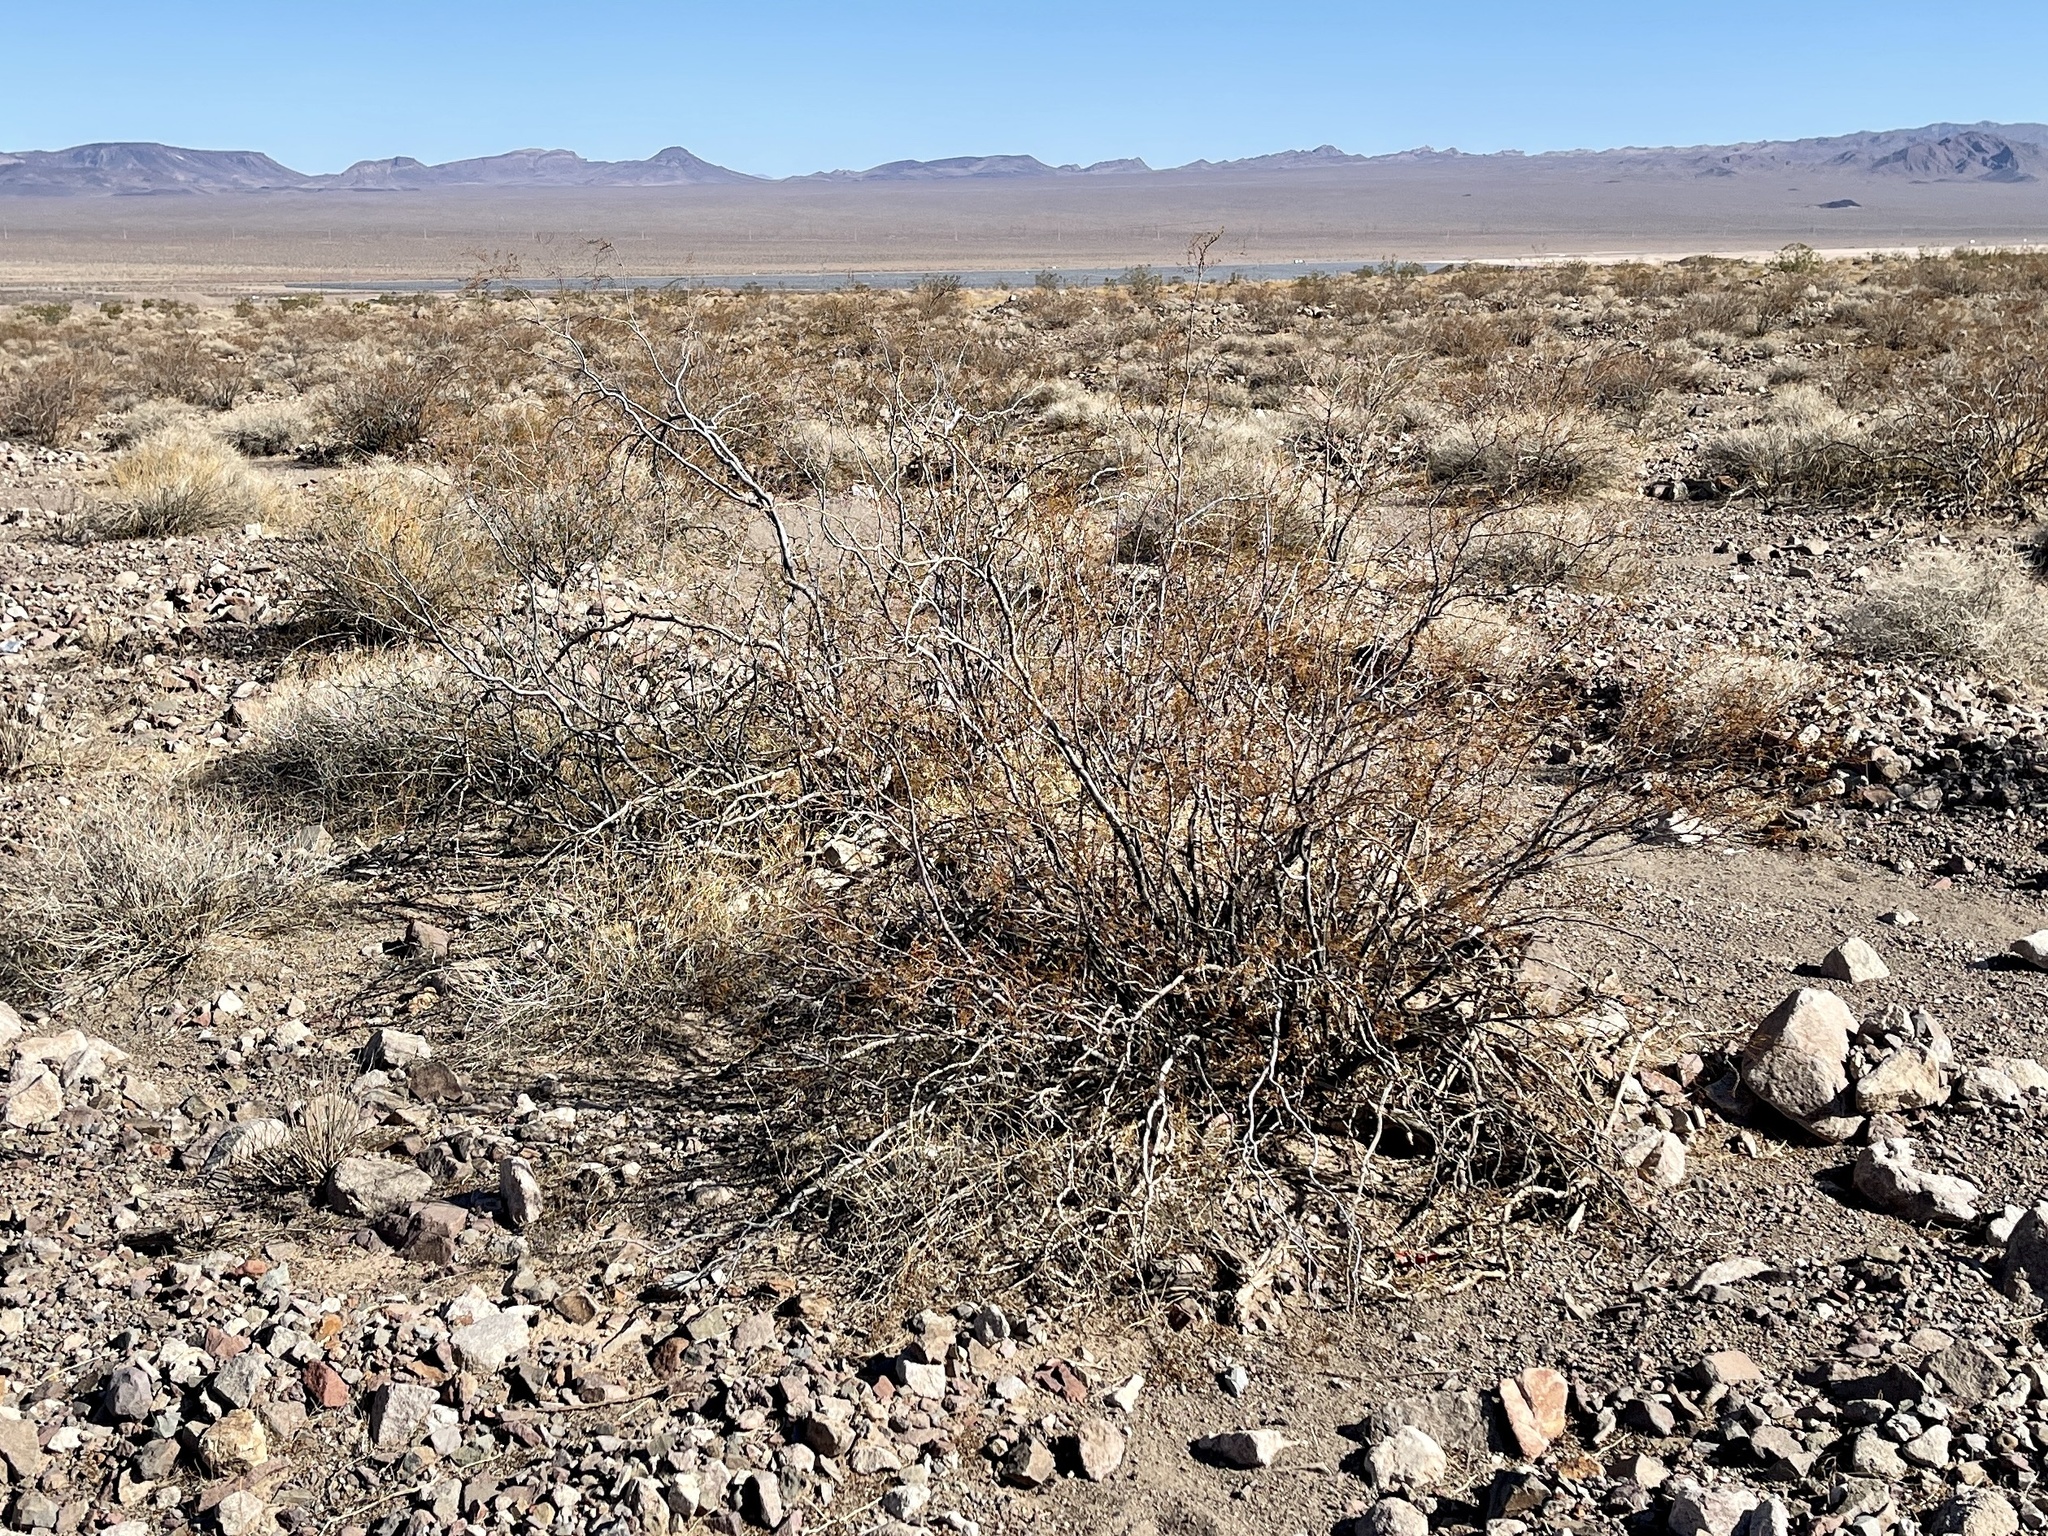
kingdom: Plantae
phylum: Tracheophyta
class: Magnoliopsida
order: Zygophyllales
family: Zygophyllaceae
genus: Larrea
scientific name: Larrea tridentata
